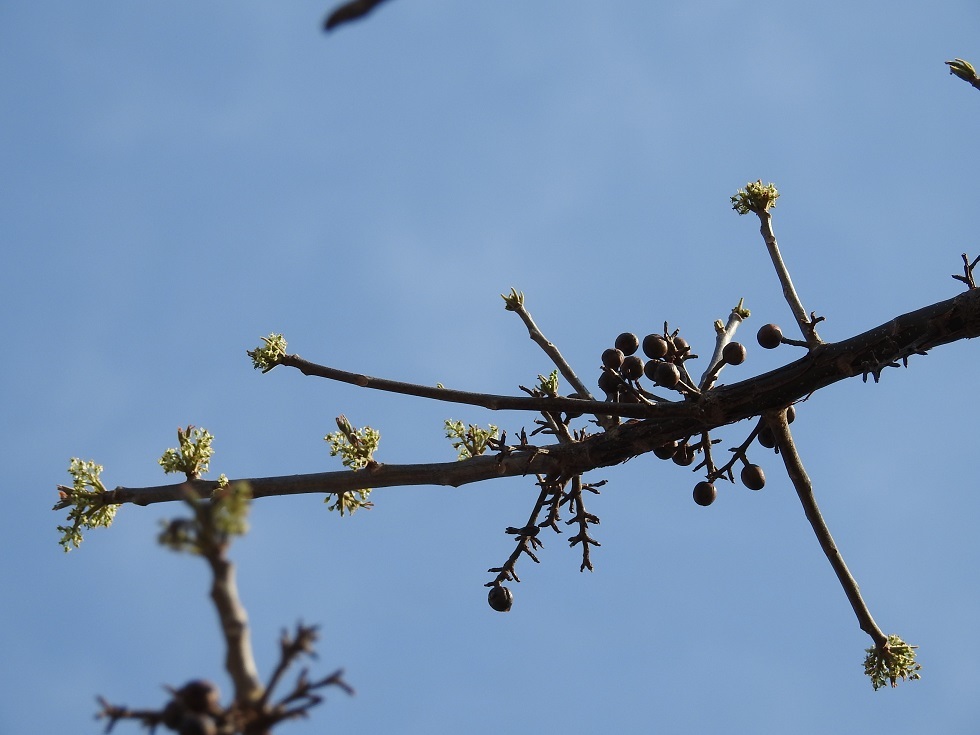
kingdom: Plantae
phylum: Tracheophyta
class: Magnoliopsida
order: Sapindales
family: Burseraceae
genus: Bursera
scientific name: Bursera simaruba
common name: Turpentine tree
